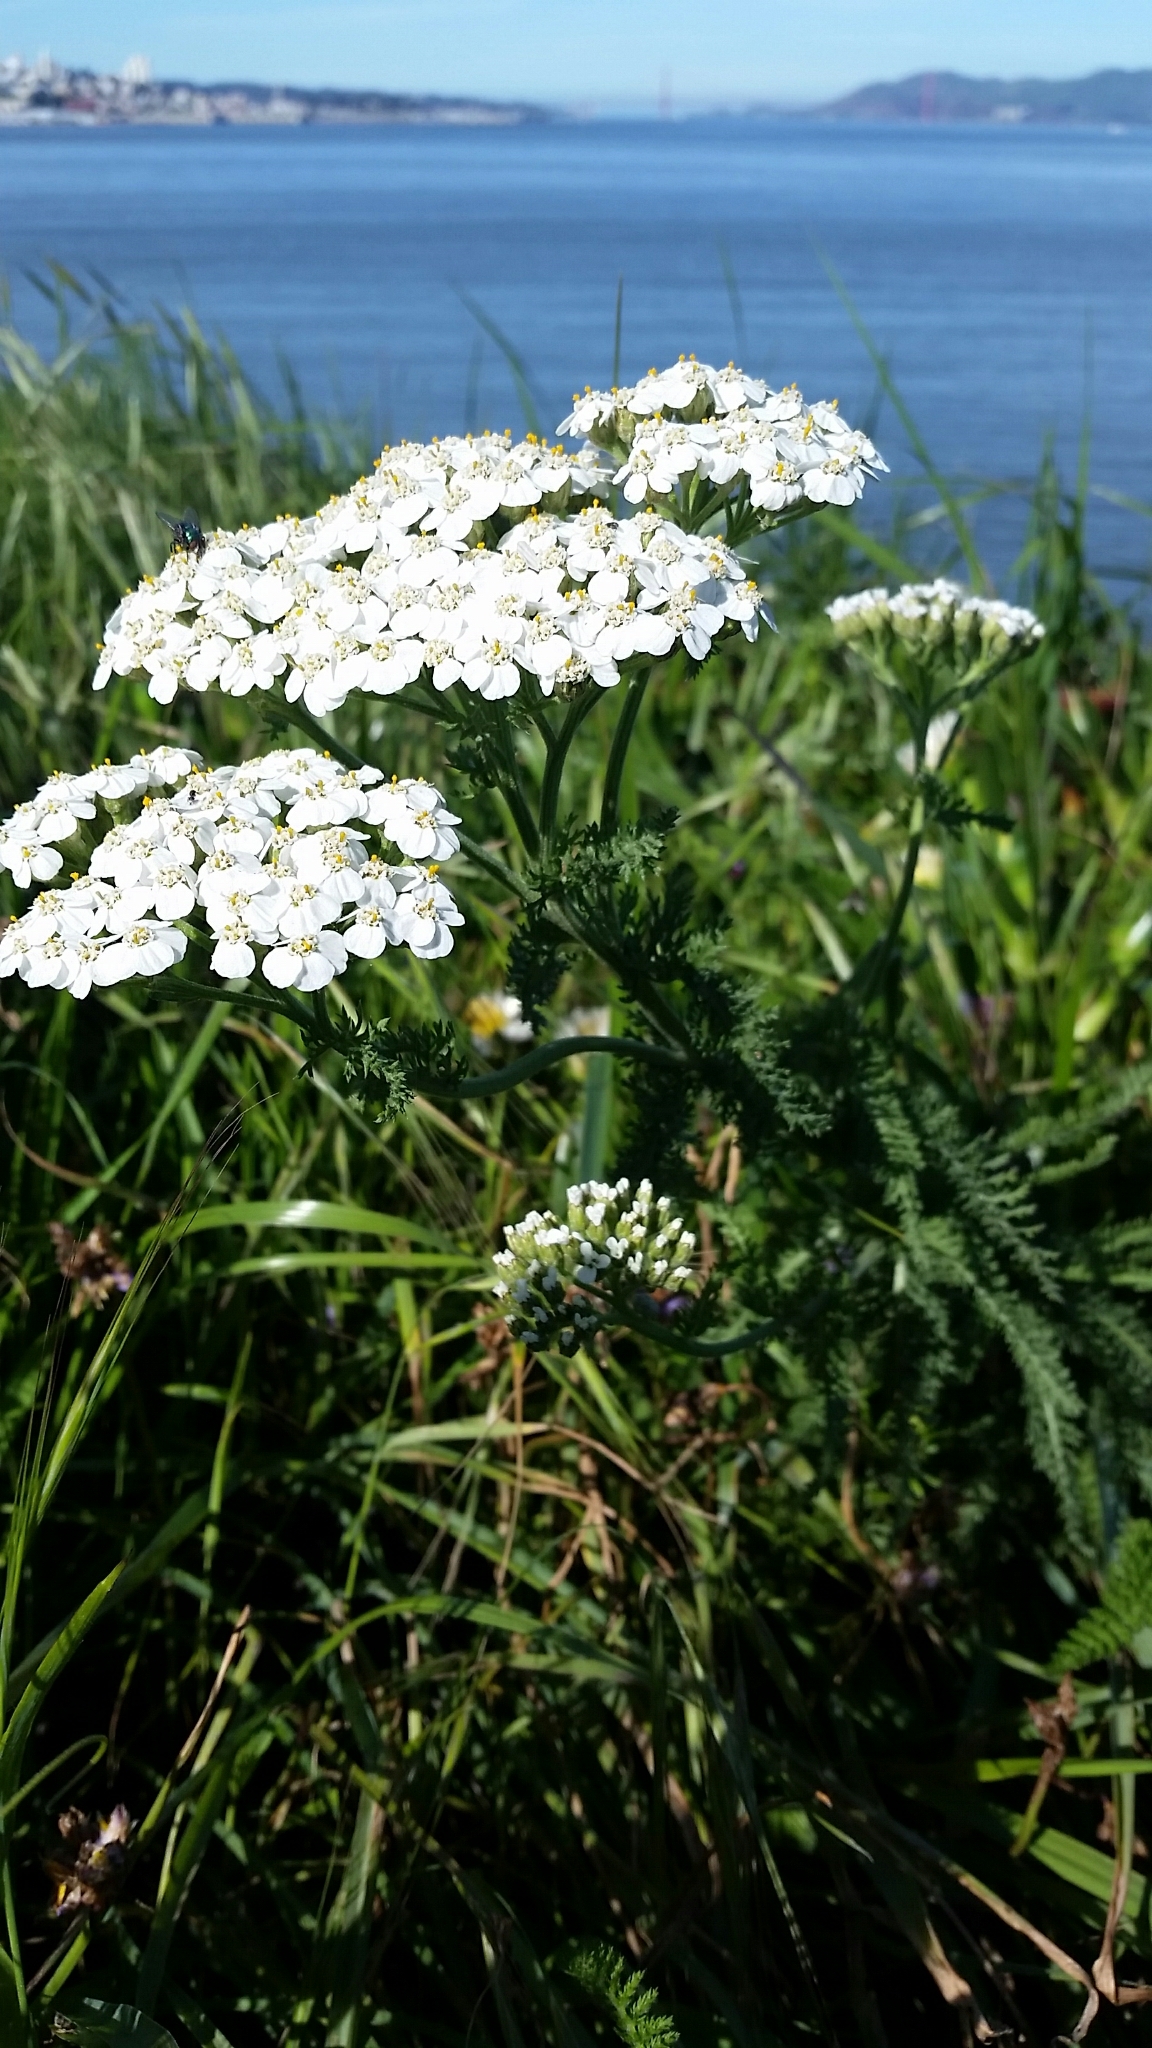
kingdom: Plantae
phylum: Tracheophyta
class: Magnoliopsida
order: Asterales
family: Asteraceae
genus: Achillea
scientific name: Achillea millefolium
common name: Yarrow
